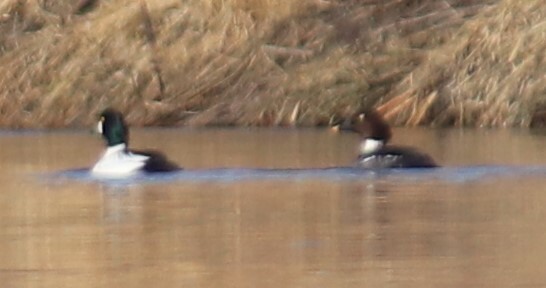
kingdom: Animalia
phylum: Chordata
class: Aves
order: Anseriformes
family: Anatidae
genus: Bucephala
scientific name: Bucephala clangula
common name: Common goldeneye
